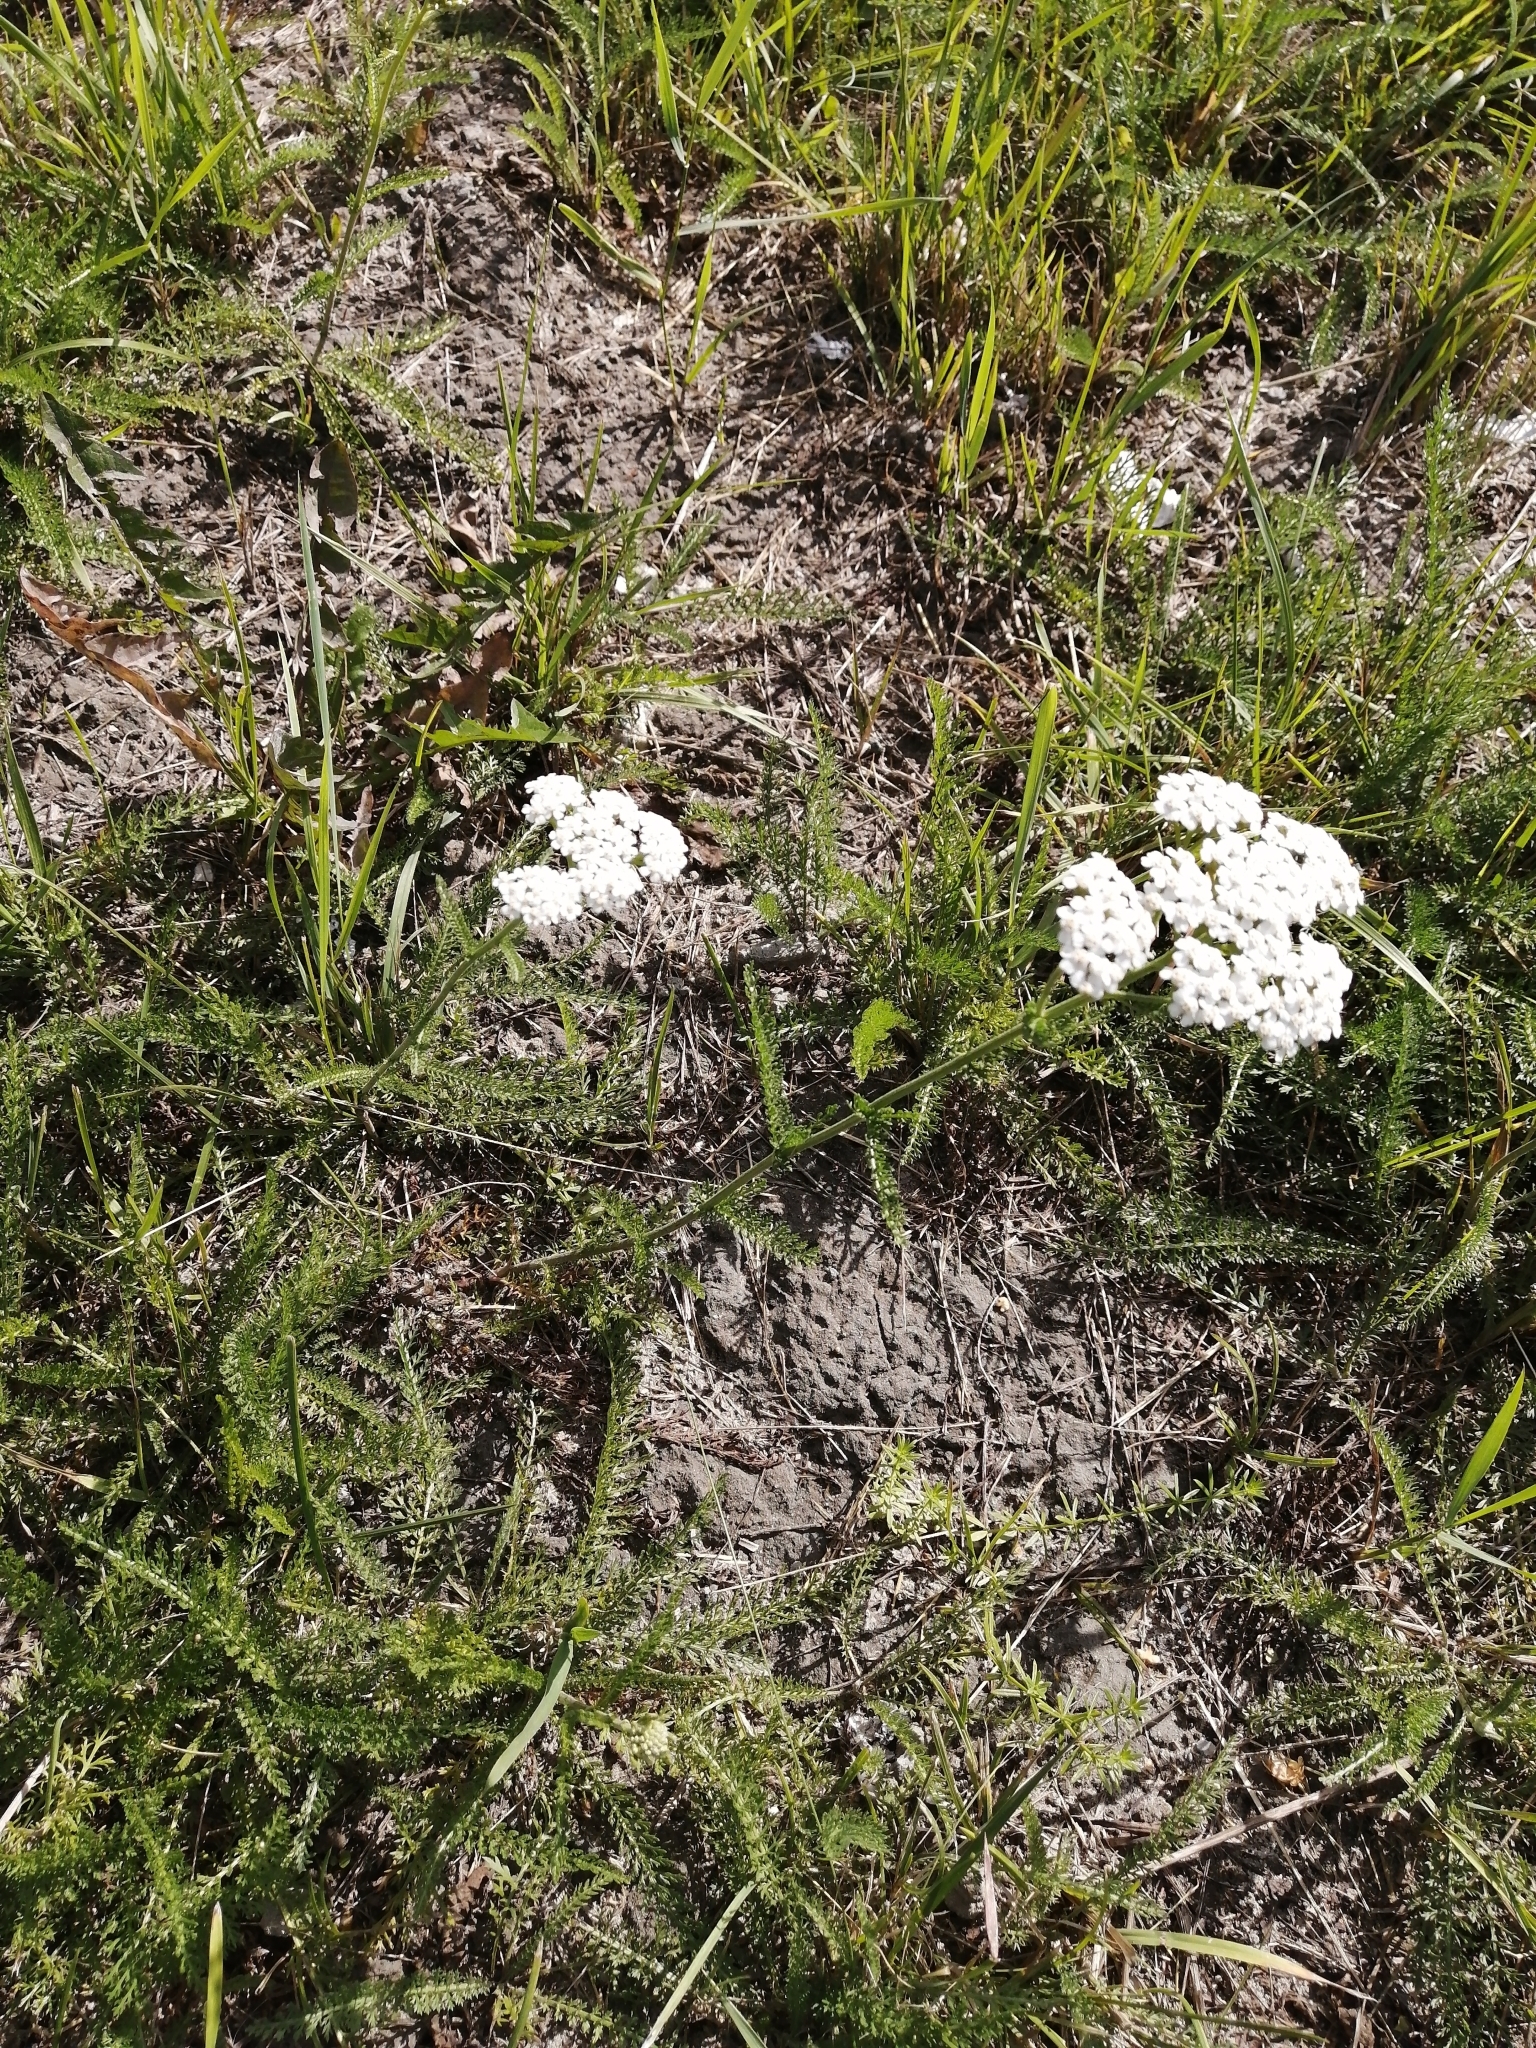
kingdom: Plantae
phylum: Tracheophyta
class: Magnoliopsida
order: Asterales
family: Asteraceae
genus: Achillea
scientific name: Achillea millefolium
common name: Yarrow
